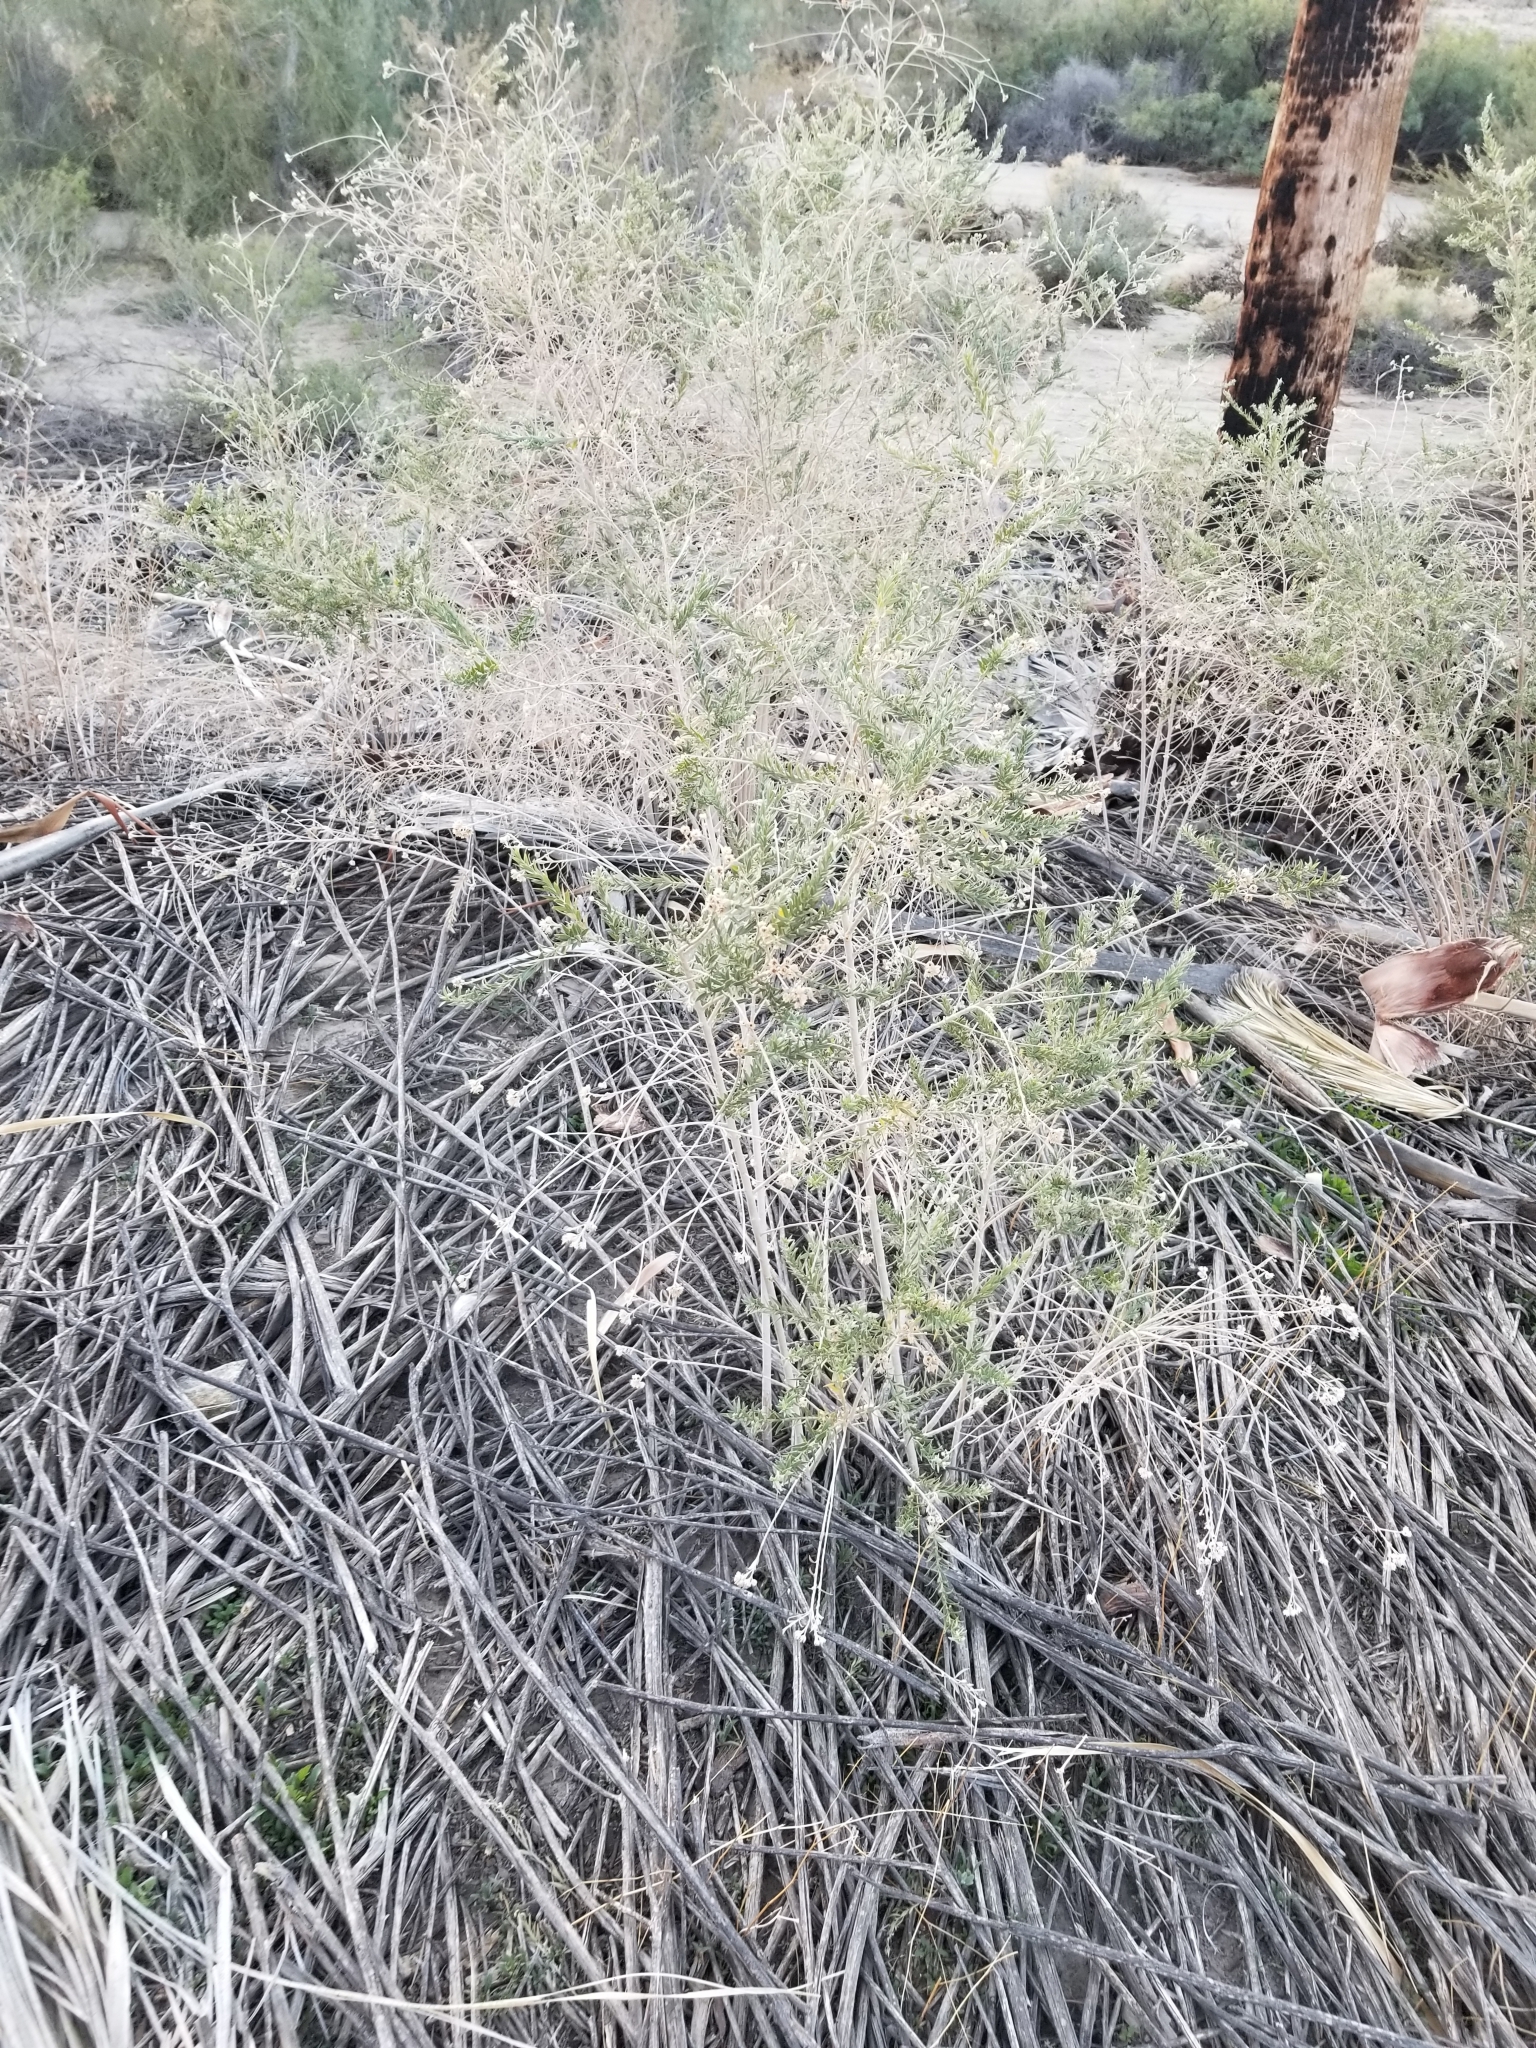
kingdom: Plantae
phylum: Tracheophyta
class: Magnoliopsida
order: Asterales
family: Asteraceae
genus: Pluchea
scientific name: Pluchea sericea
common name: Arrow-weed
